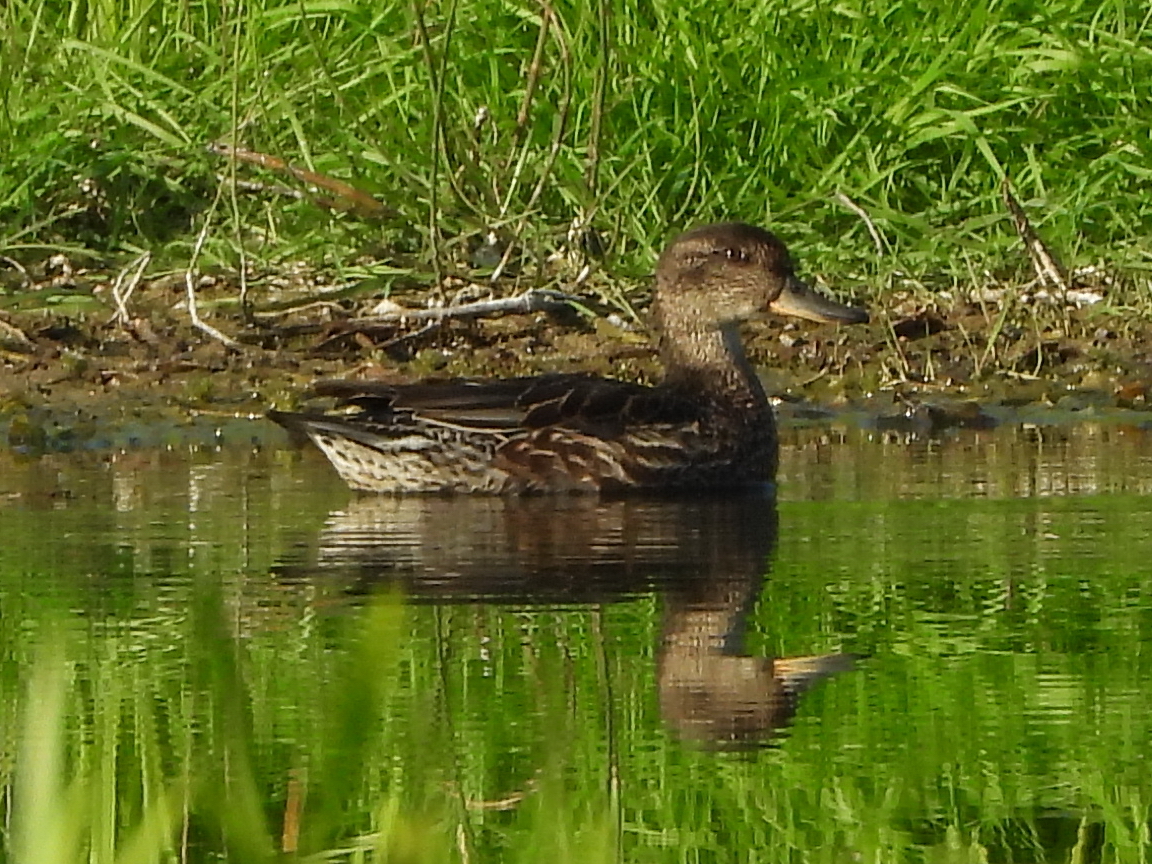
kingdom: Animalia
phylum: Chordata
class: Aves
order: Anseriformes
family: Anatidae
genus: Anas
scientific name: Anas crecca
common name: Eurasian teal
